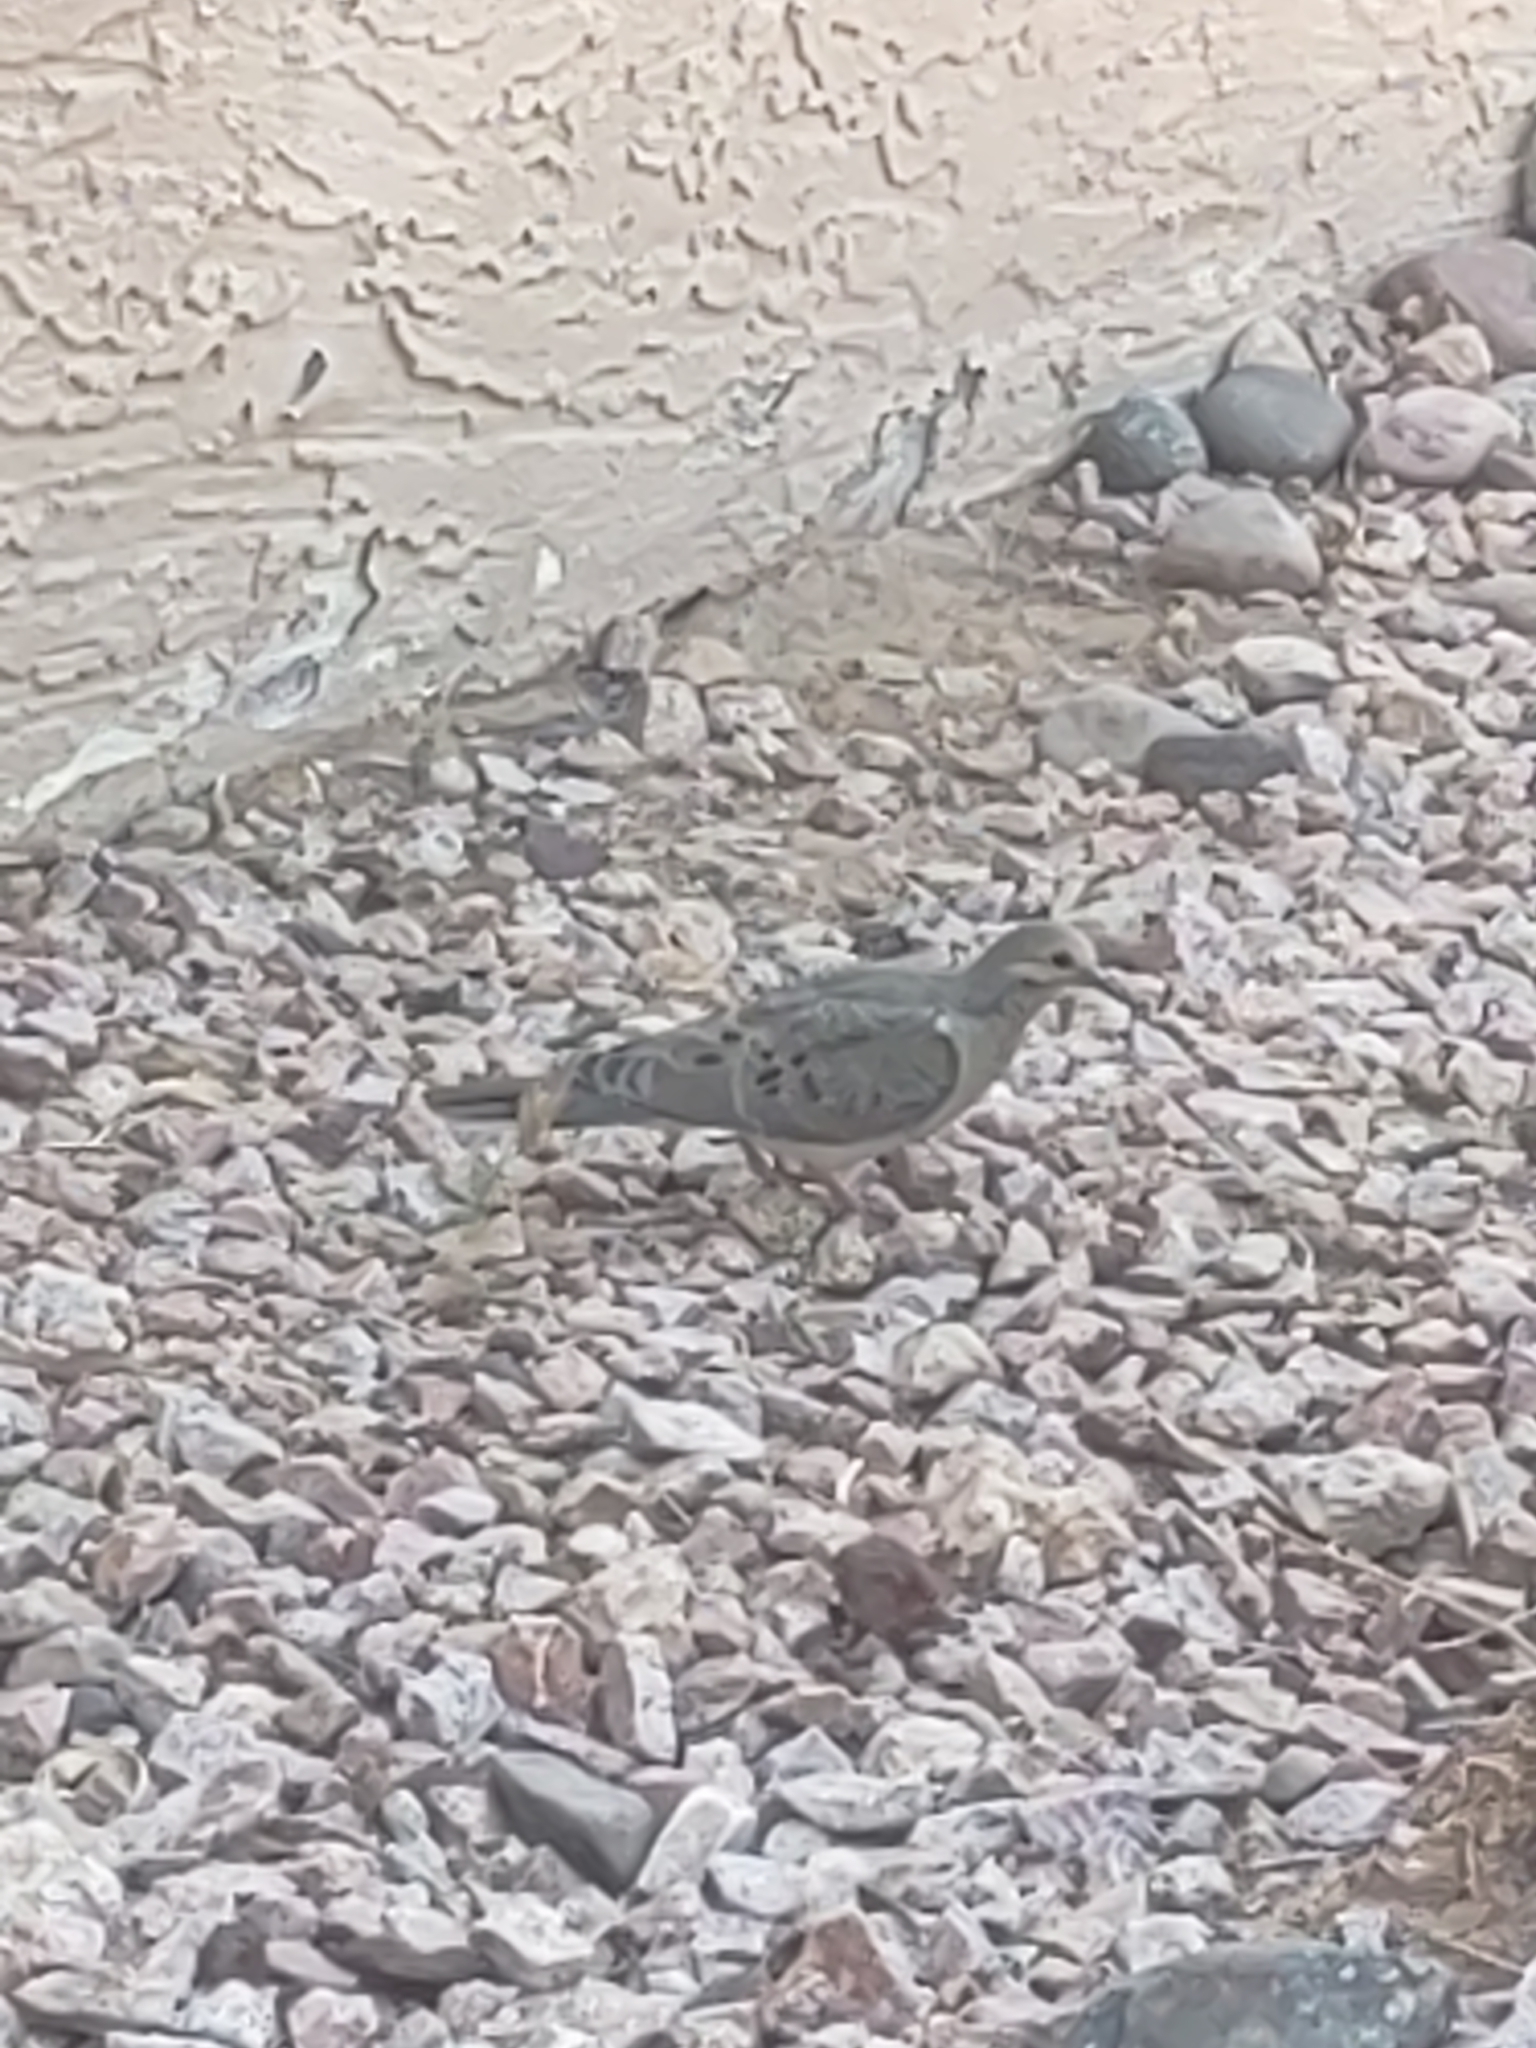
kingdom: Animalia
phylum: Chordata
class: Aves
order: Columbiformes
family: Columbidae
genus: Zenaida
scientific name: Zenaida macroura
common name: Mourning dove
